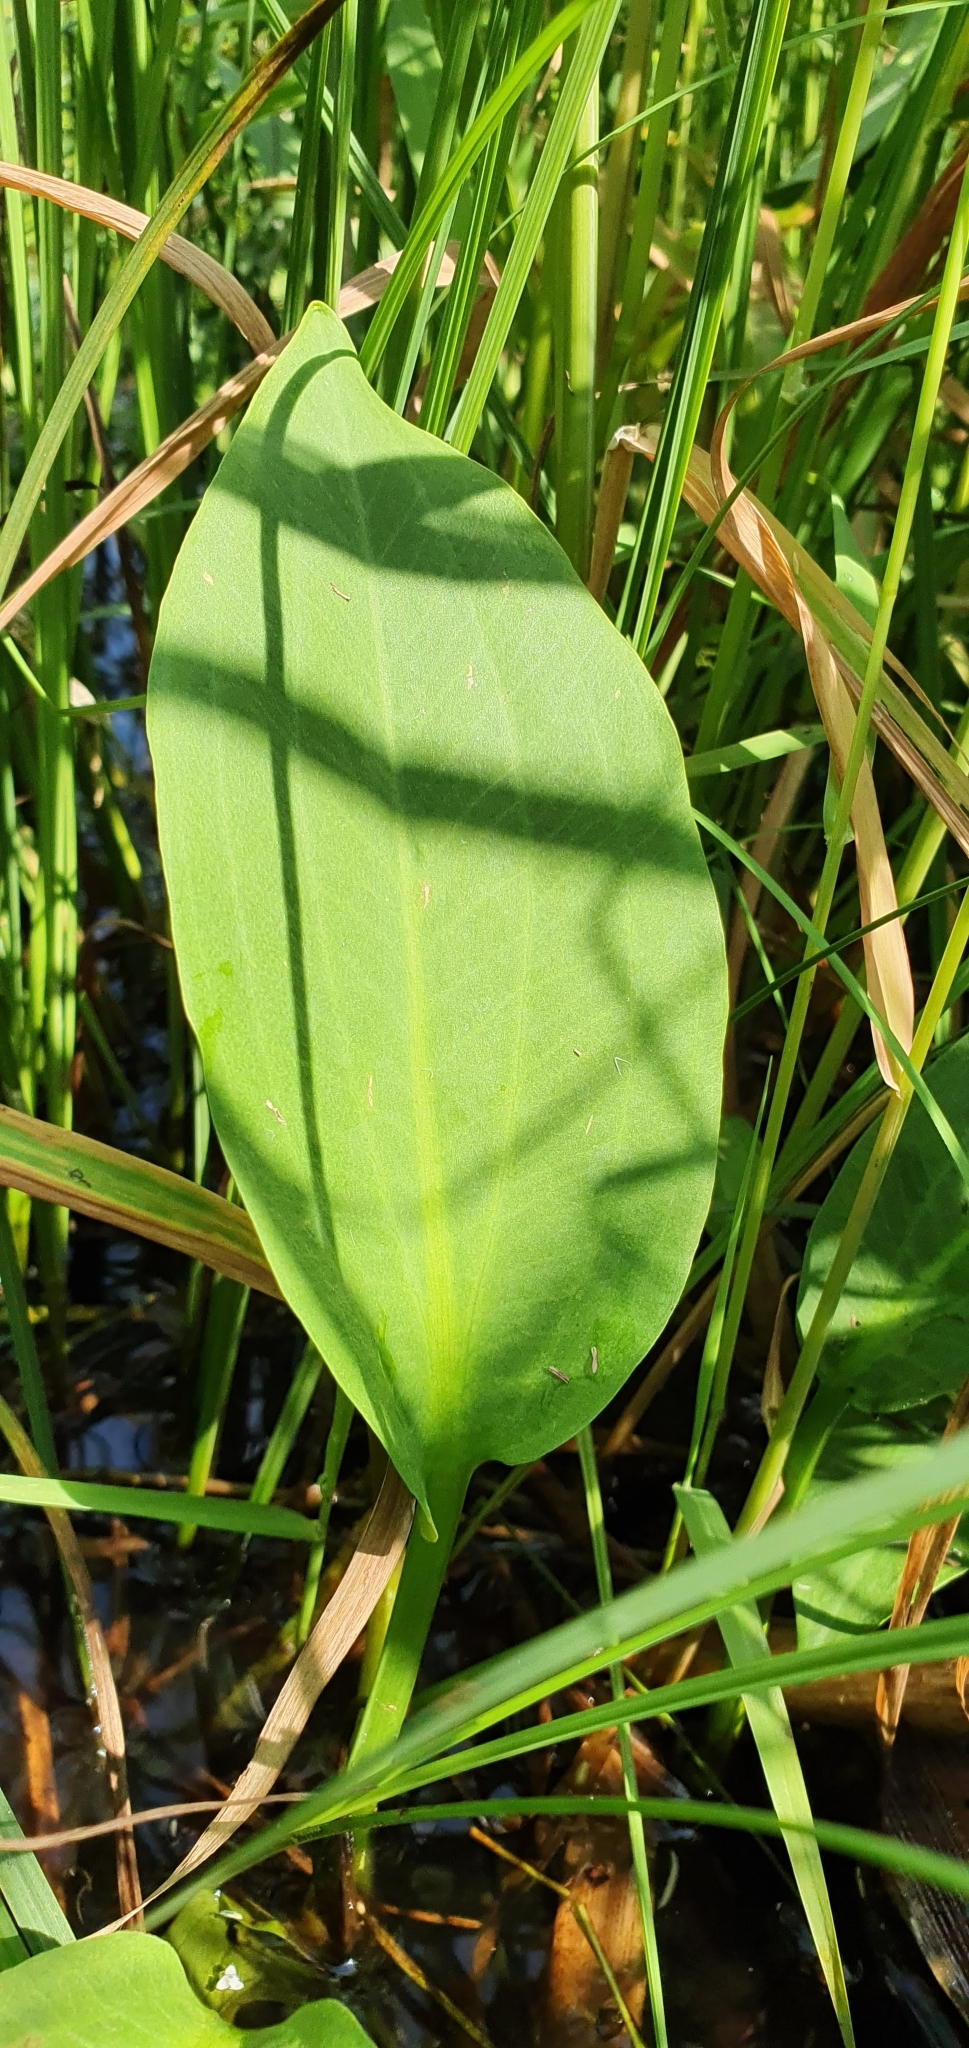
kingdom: Plantae
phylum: Tracheophyta
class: Liliopsida
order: Alismatales
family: Alismataceae
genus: Alisma
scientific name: Alisma plantago-aquatica
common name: Water-plantain
